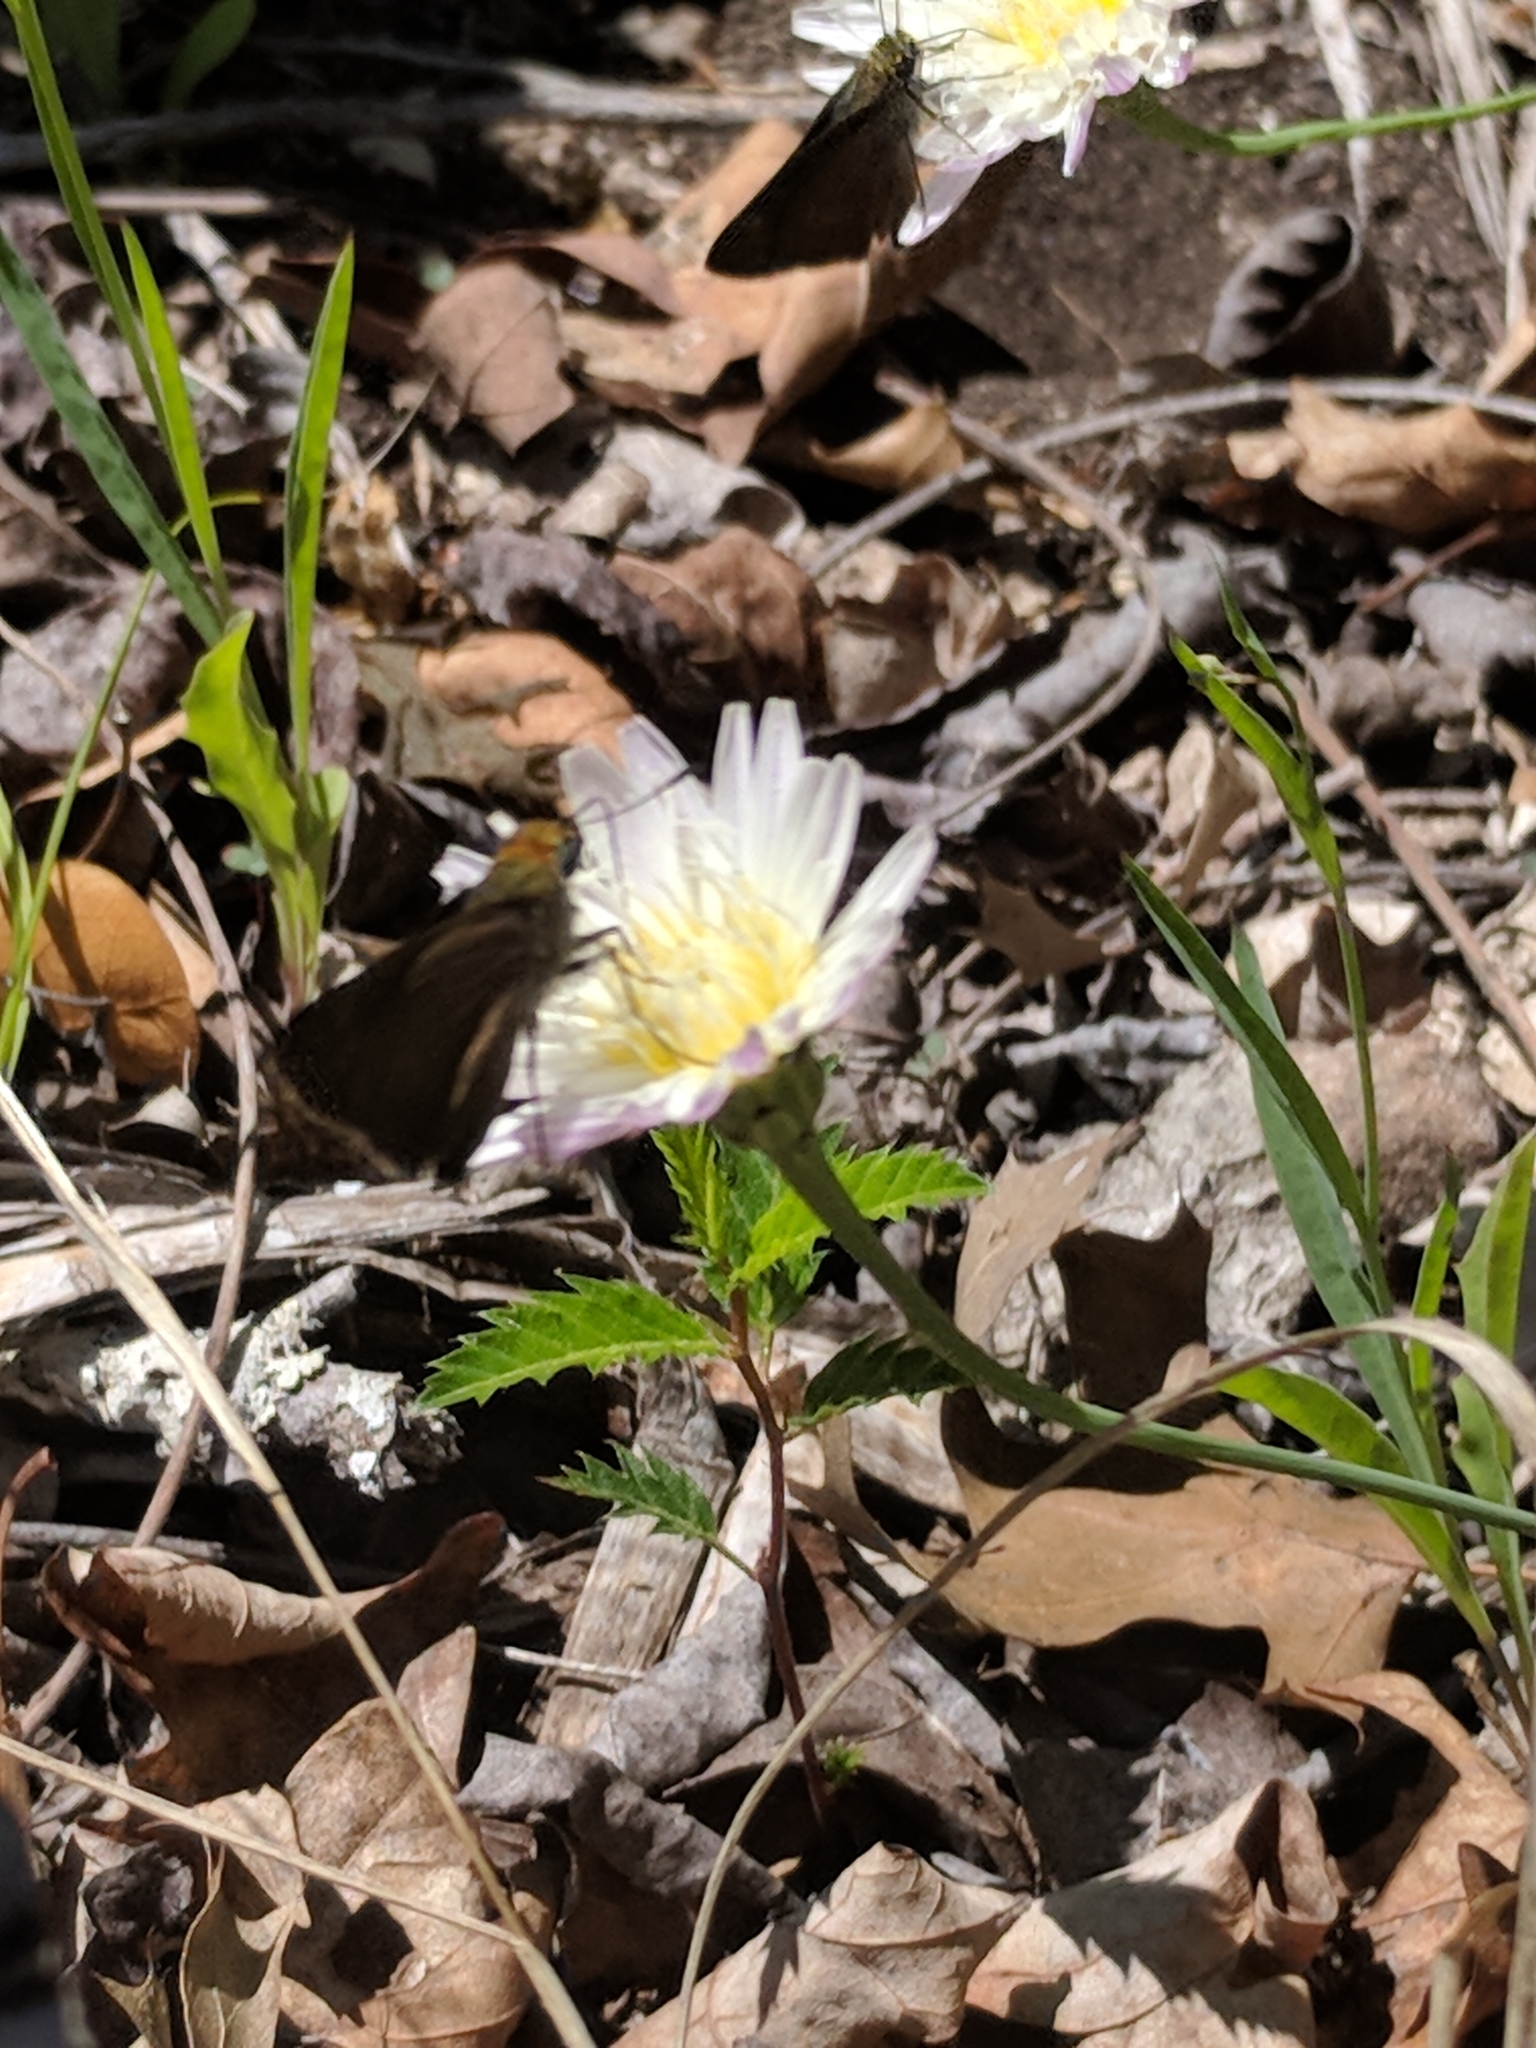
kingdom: Animalia
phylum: Arthropoda
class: Insecta
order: Lepidoptera
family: Hesperiidae
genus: Euphyes
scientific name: Euphyes vestris
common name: Dun skipper
